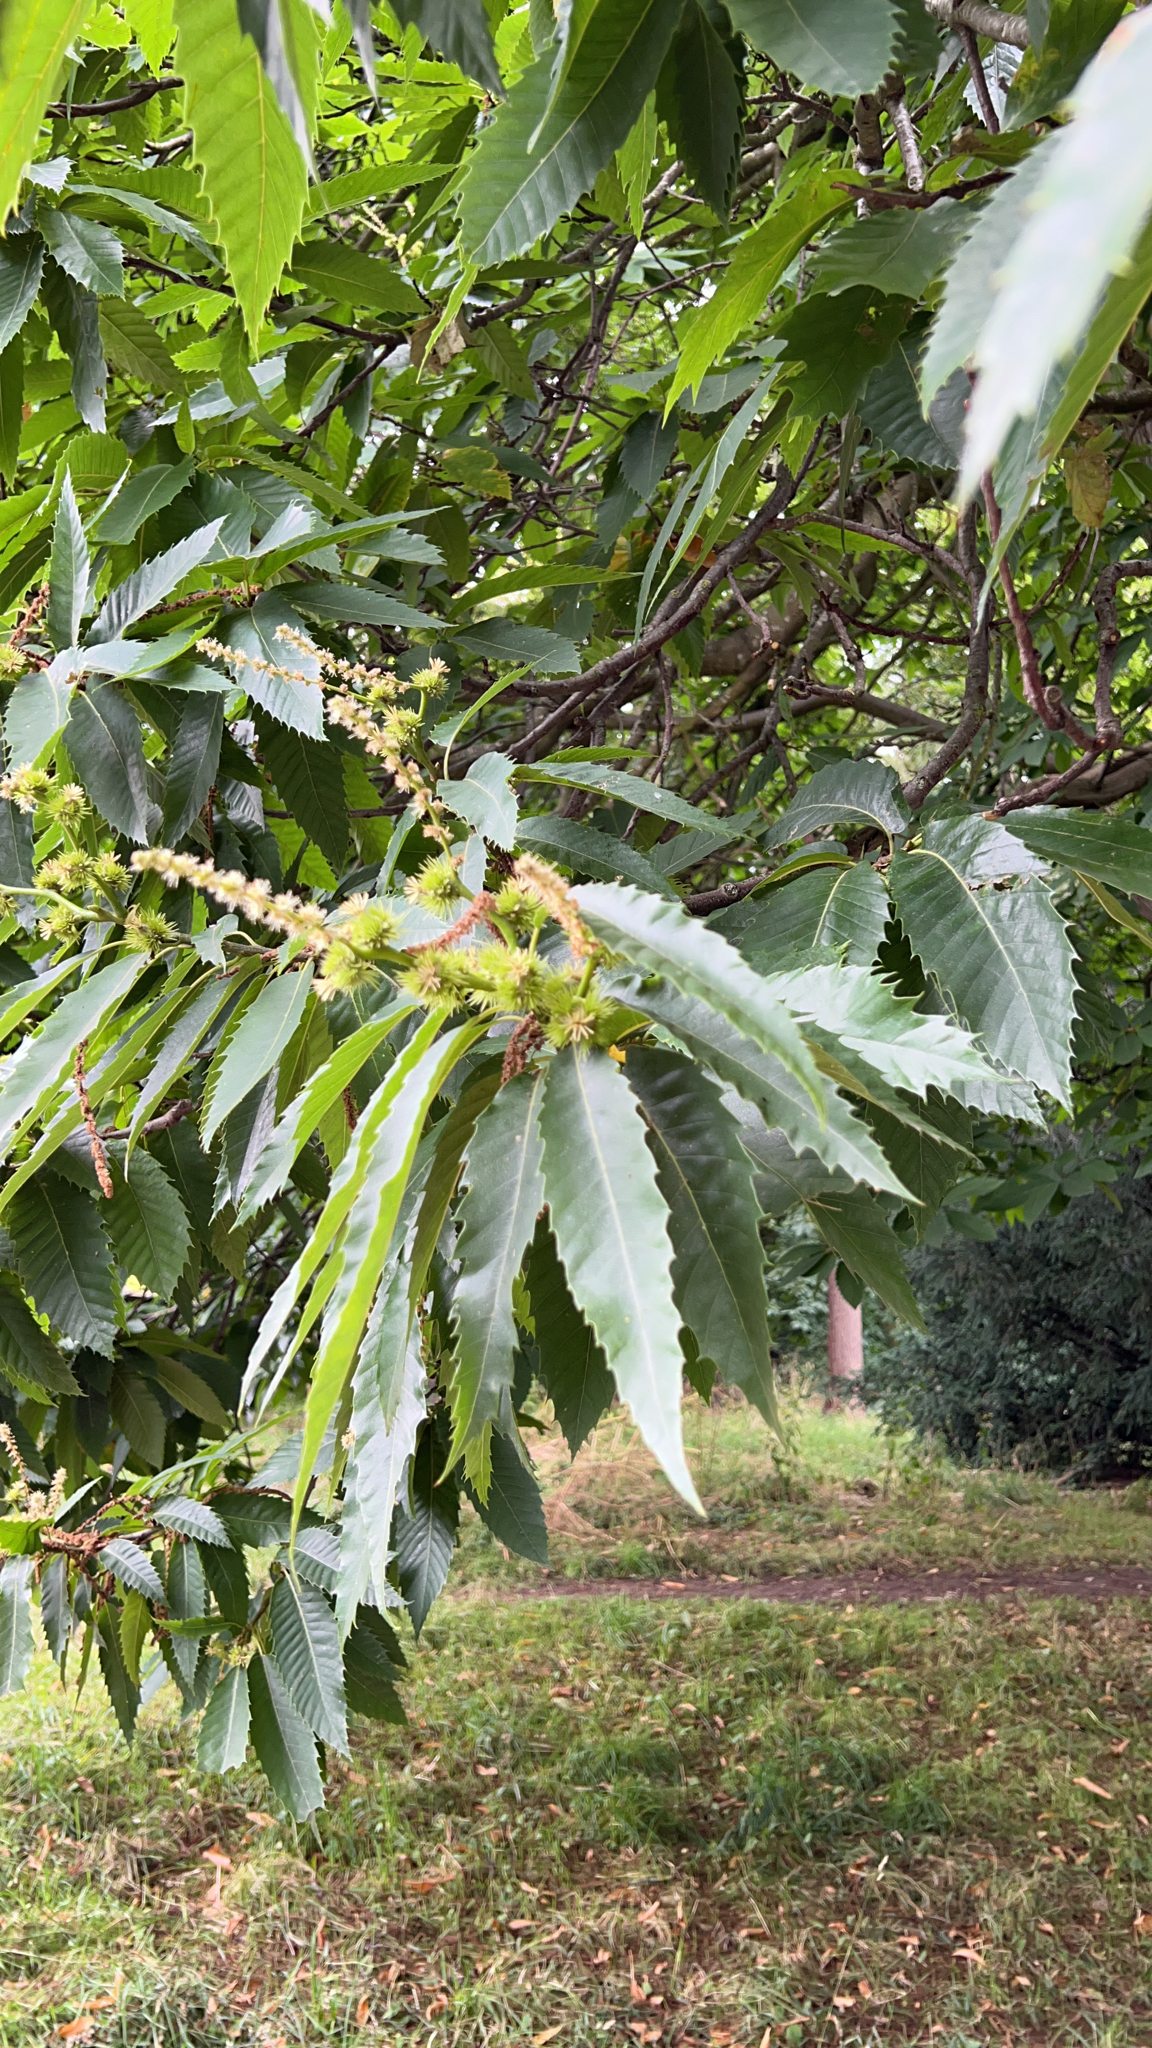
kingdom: Plantae
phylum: Tracheophyta
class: Magnoliopsida
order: Fagales
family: Fagaceae
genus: Castanea
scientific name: Castanea sativa
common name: Sweet chestnut
